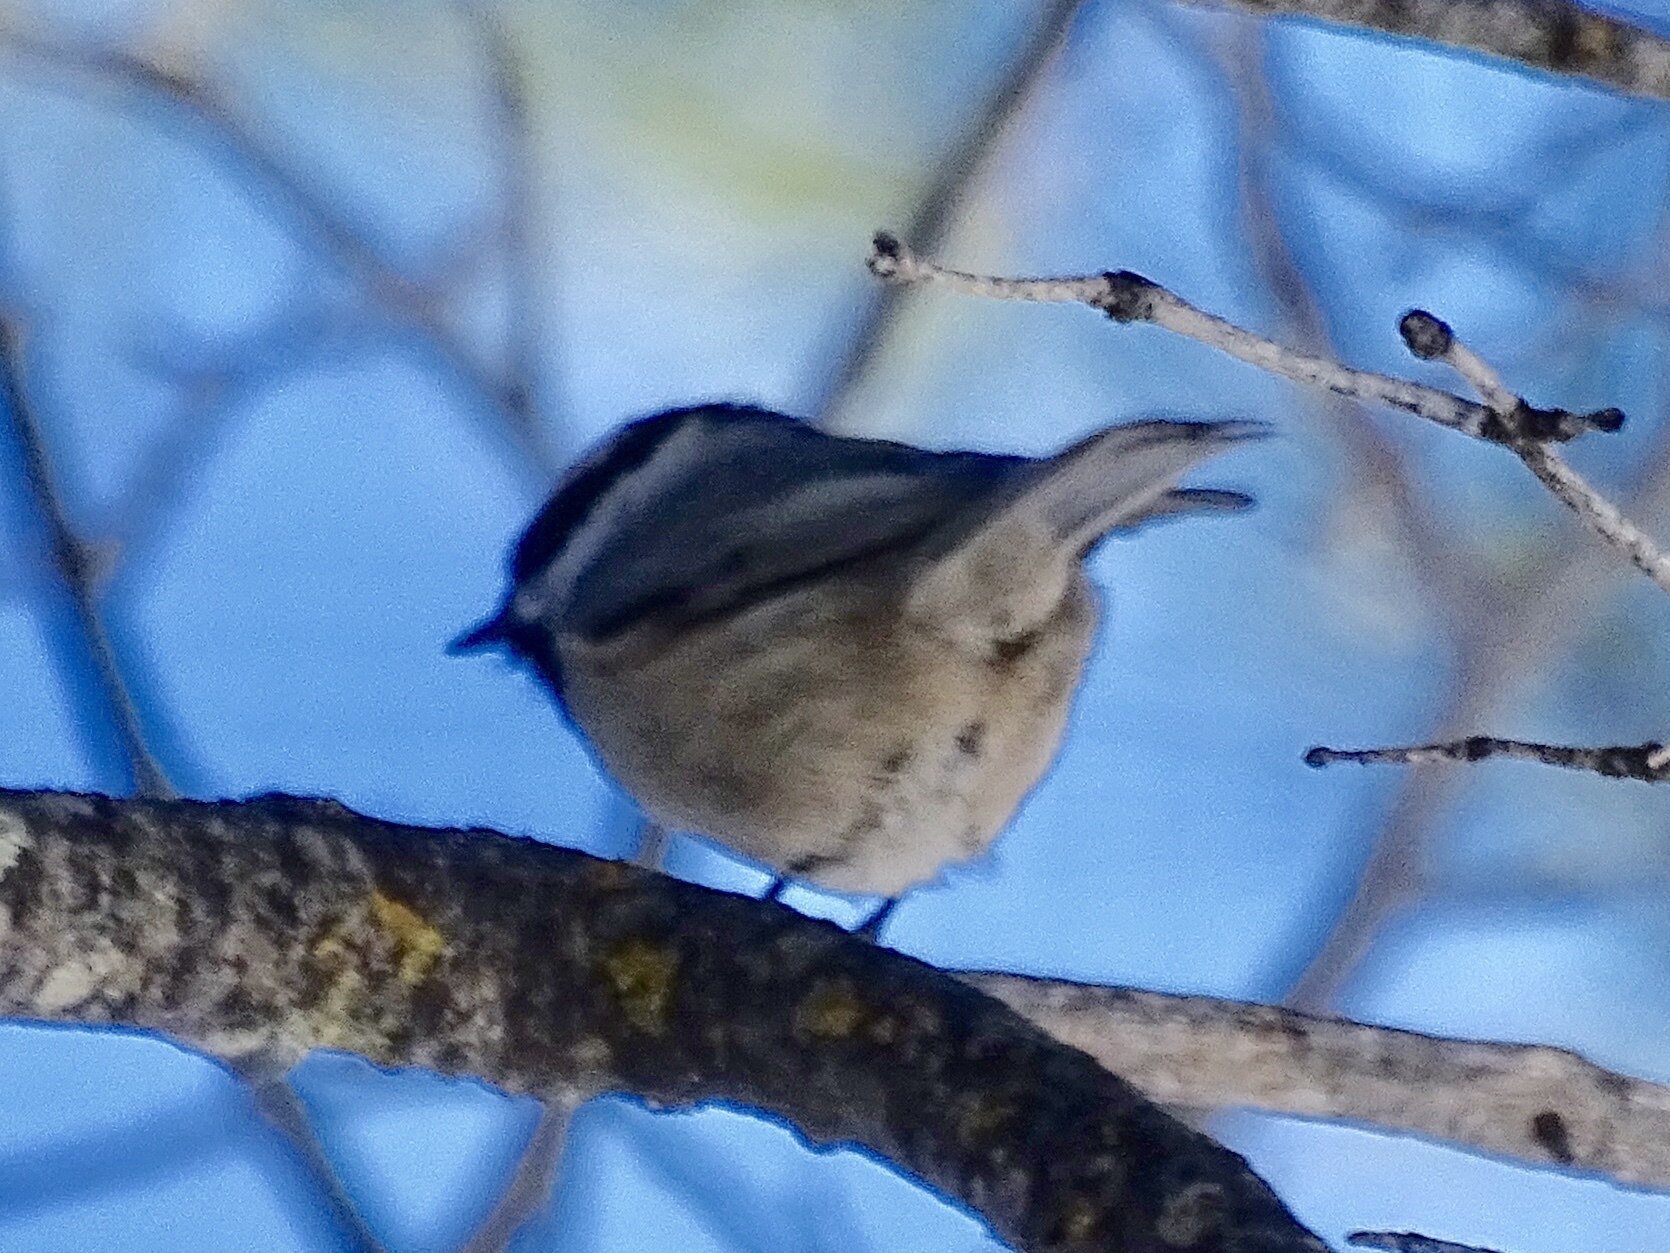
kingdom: Animalia
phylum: Chordata
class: Aves
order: Passeriformes
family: Paridae
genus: Poecile
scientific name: Poecile gambeli
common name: Mountain chickadee
